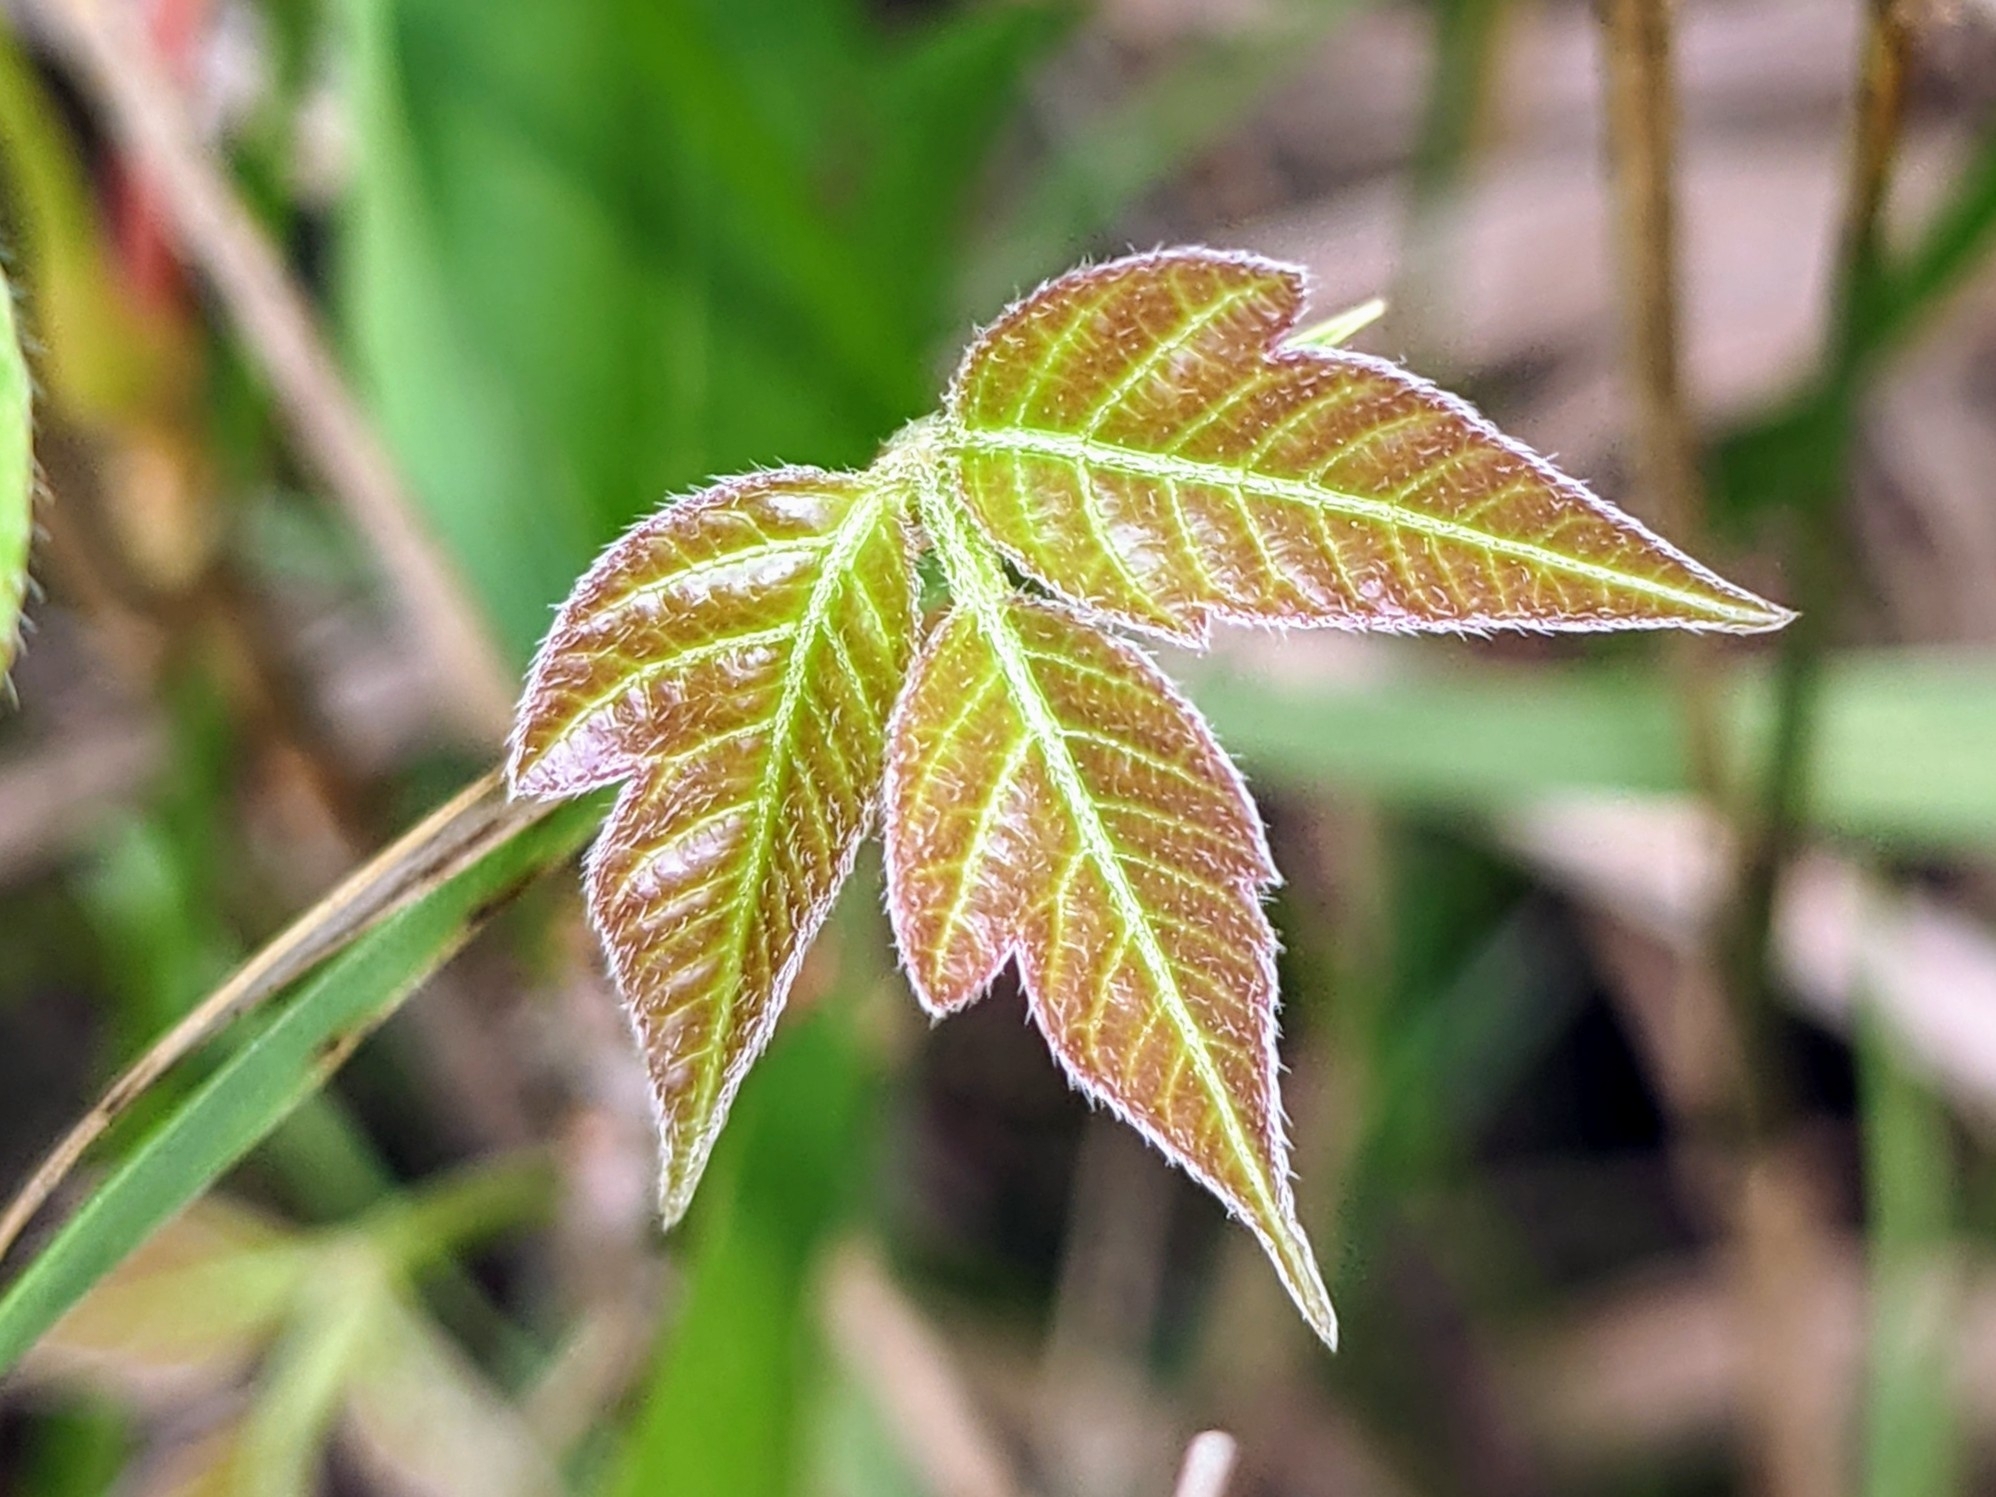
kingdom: Plantae
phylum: Tracheophyta
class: Magnoliopsida
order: Sapindales
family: Anacardiaceae
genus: Toxicodendron
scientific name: Toxicodendron radicans
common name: Poison ivy
